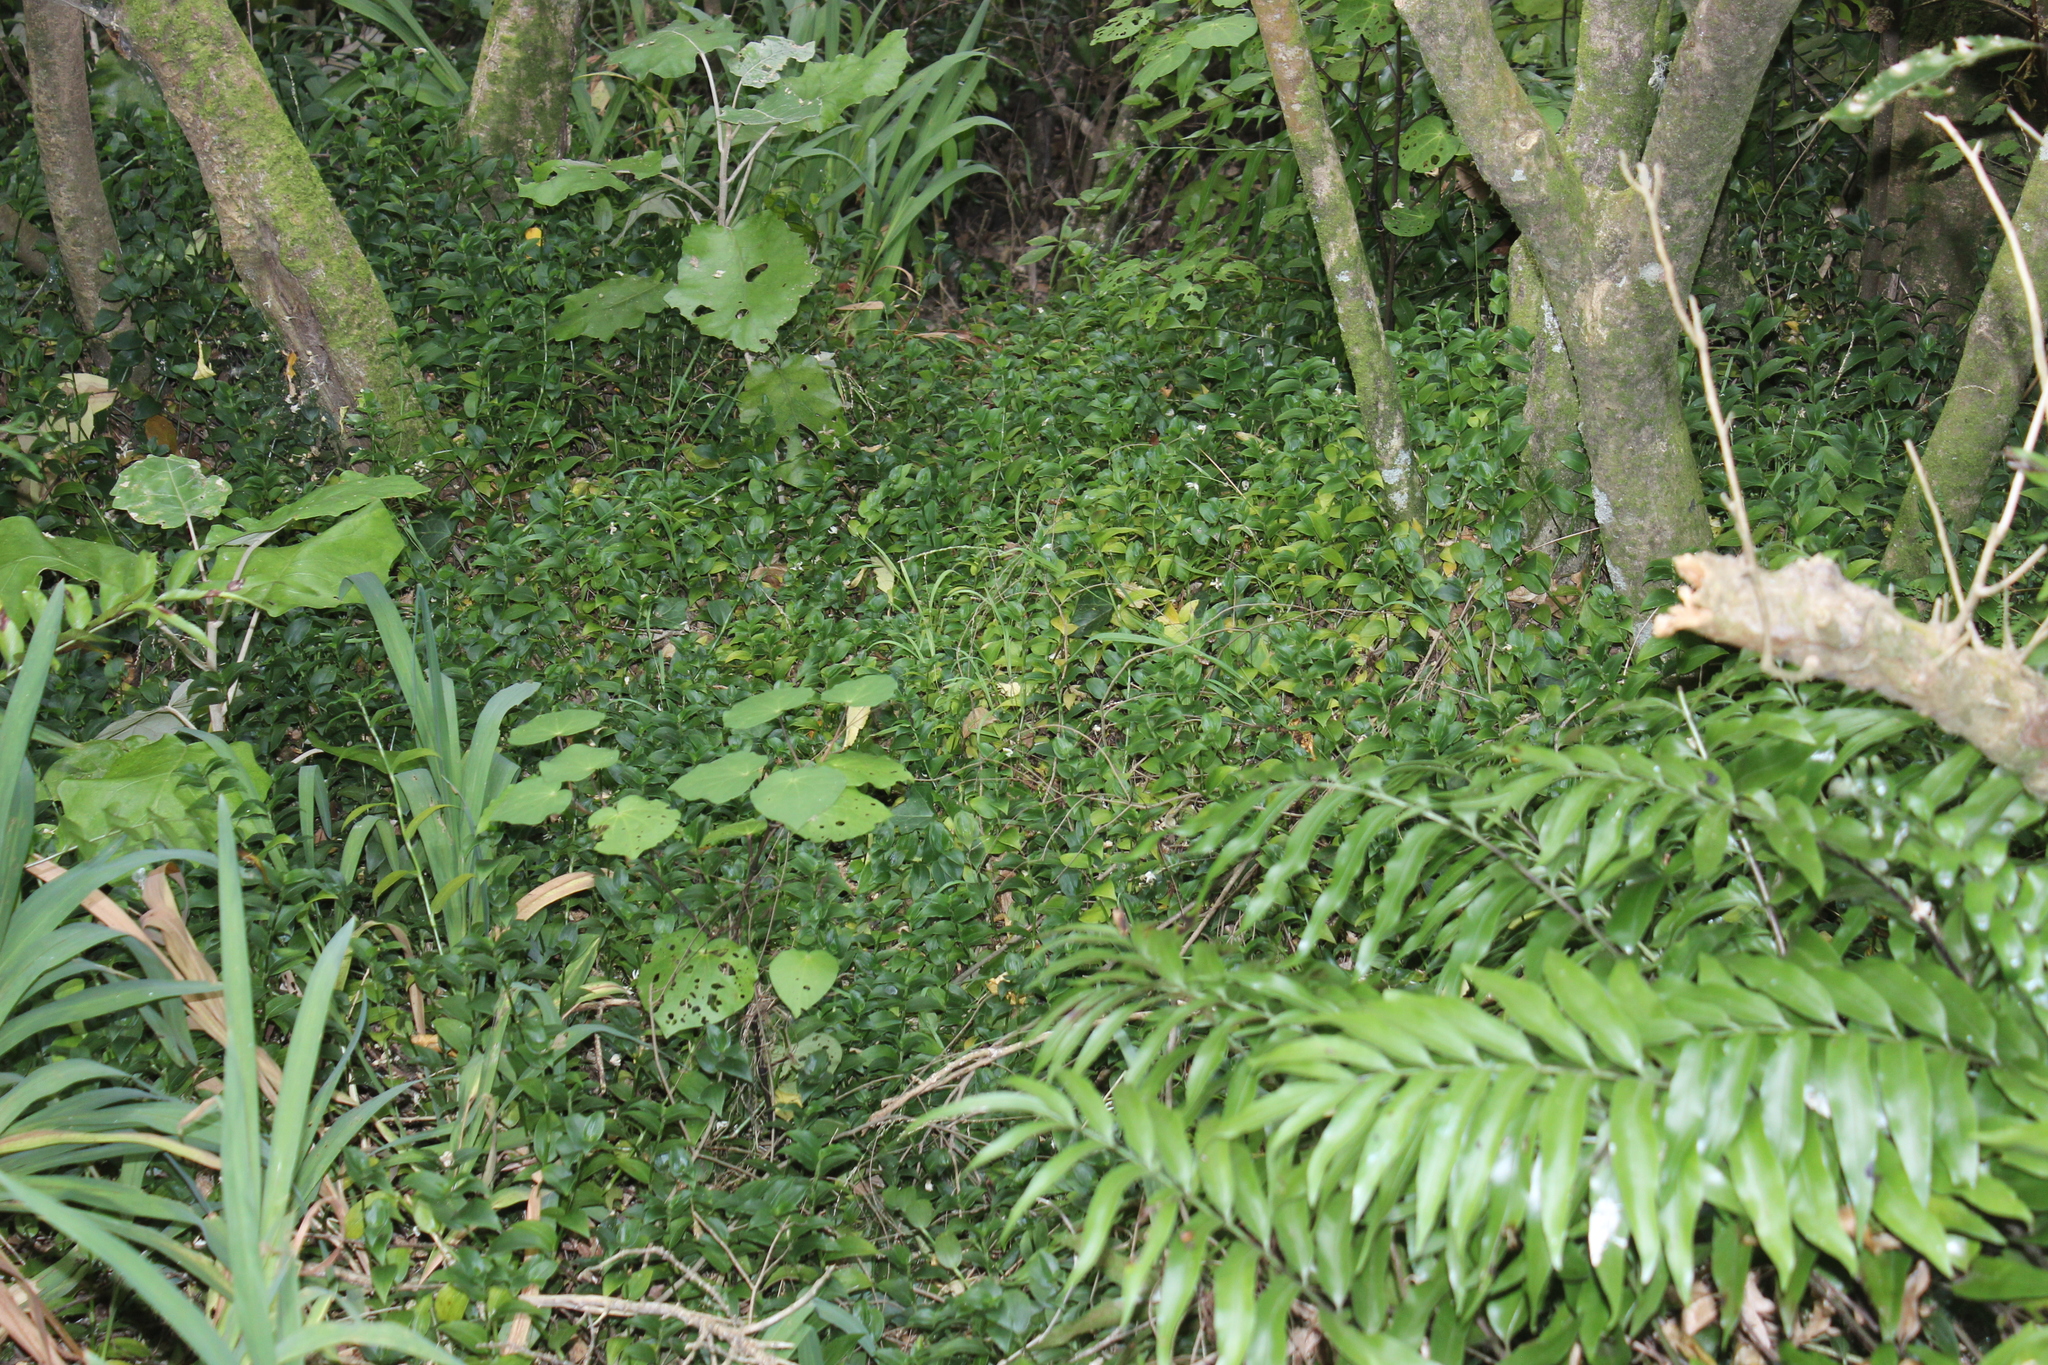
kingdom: Plantae
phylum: Tracheophyta
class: Liliopsida
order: Commelinales
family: Commelinaceae
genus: Tradescantia
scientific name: Tradescantia fluminensis
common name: Wandering-jew
